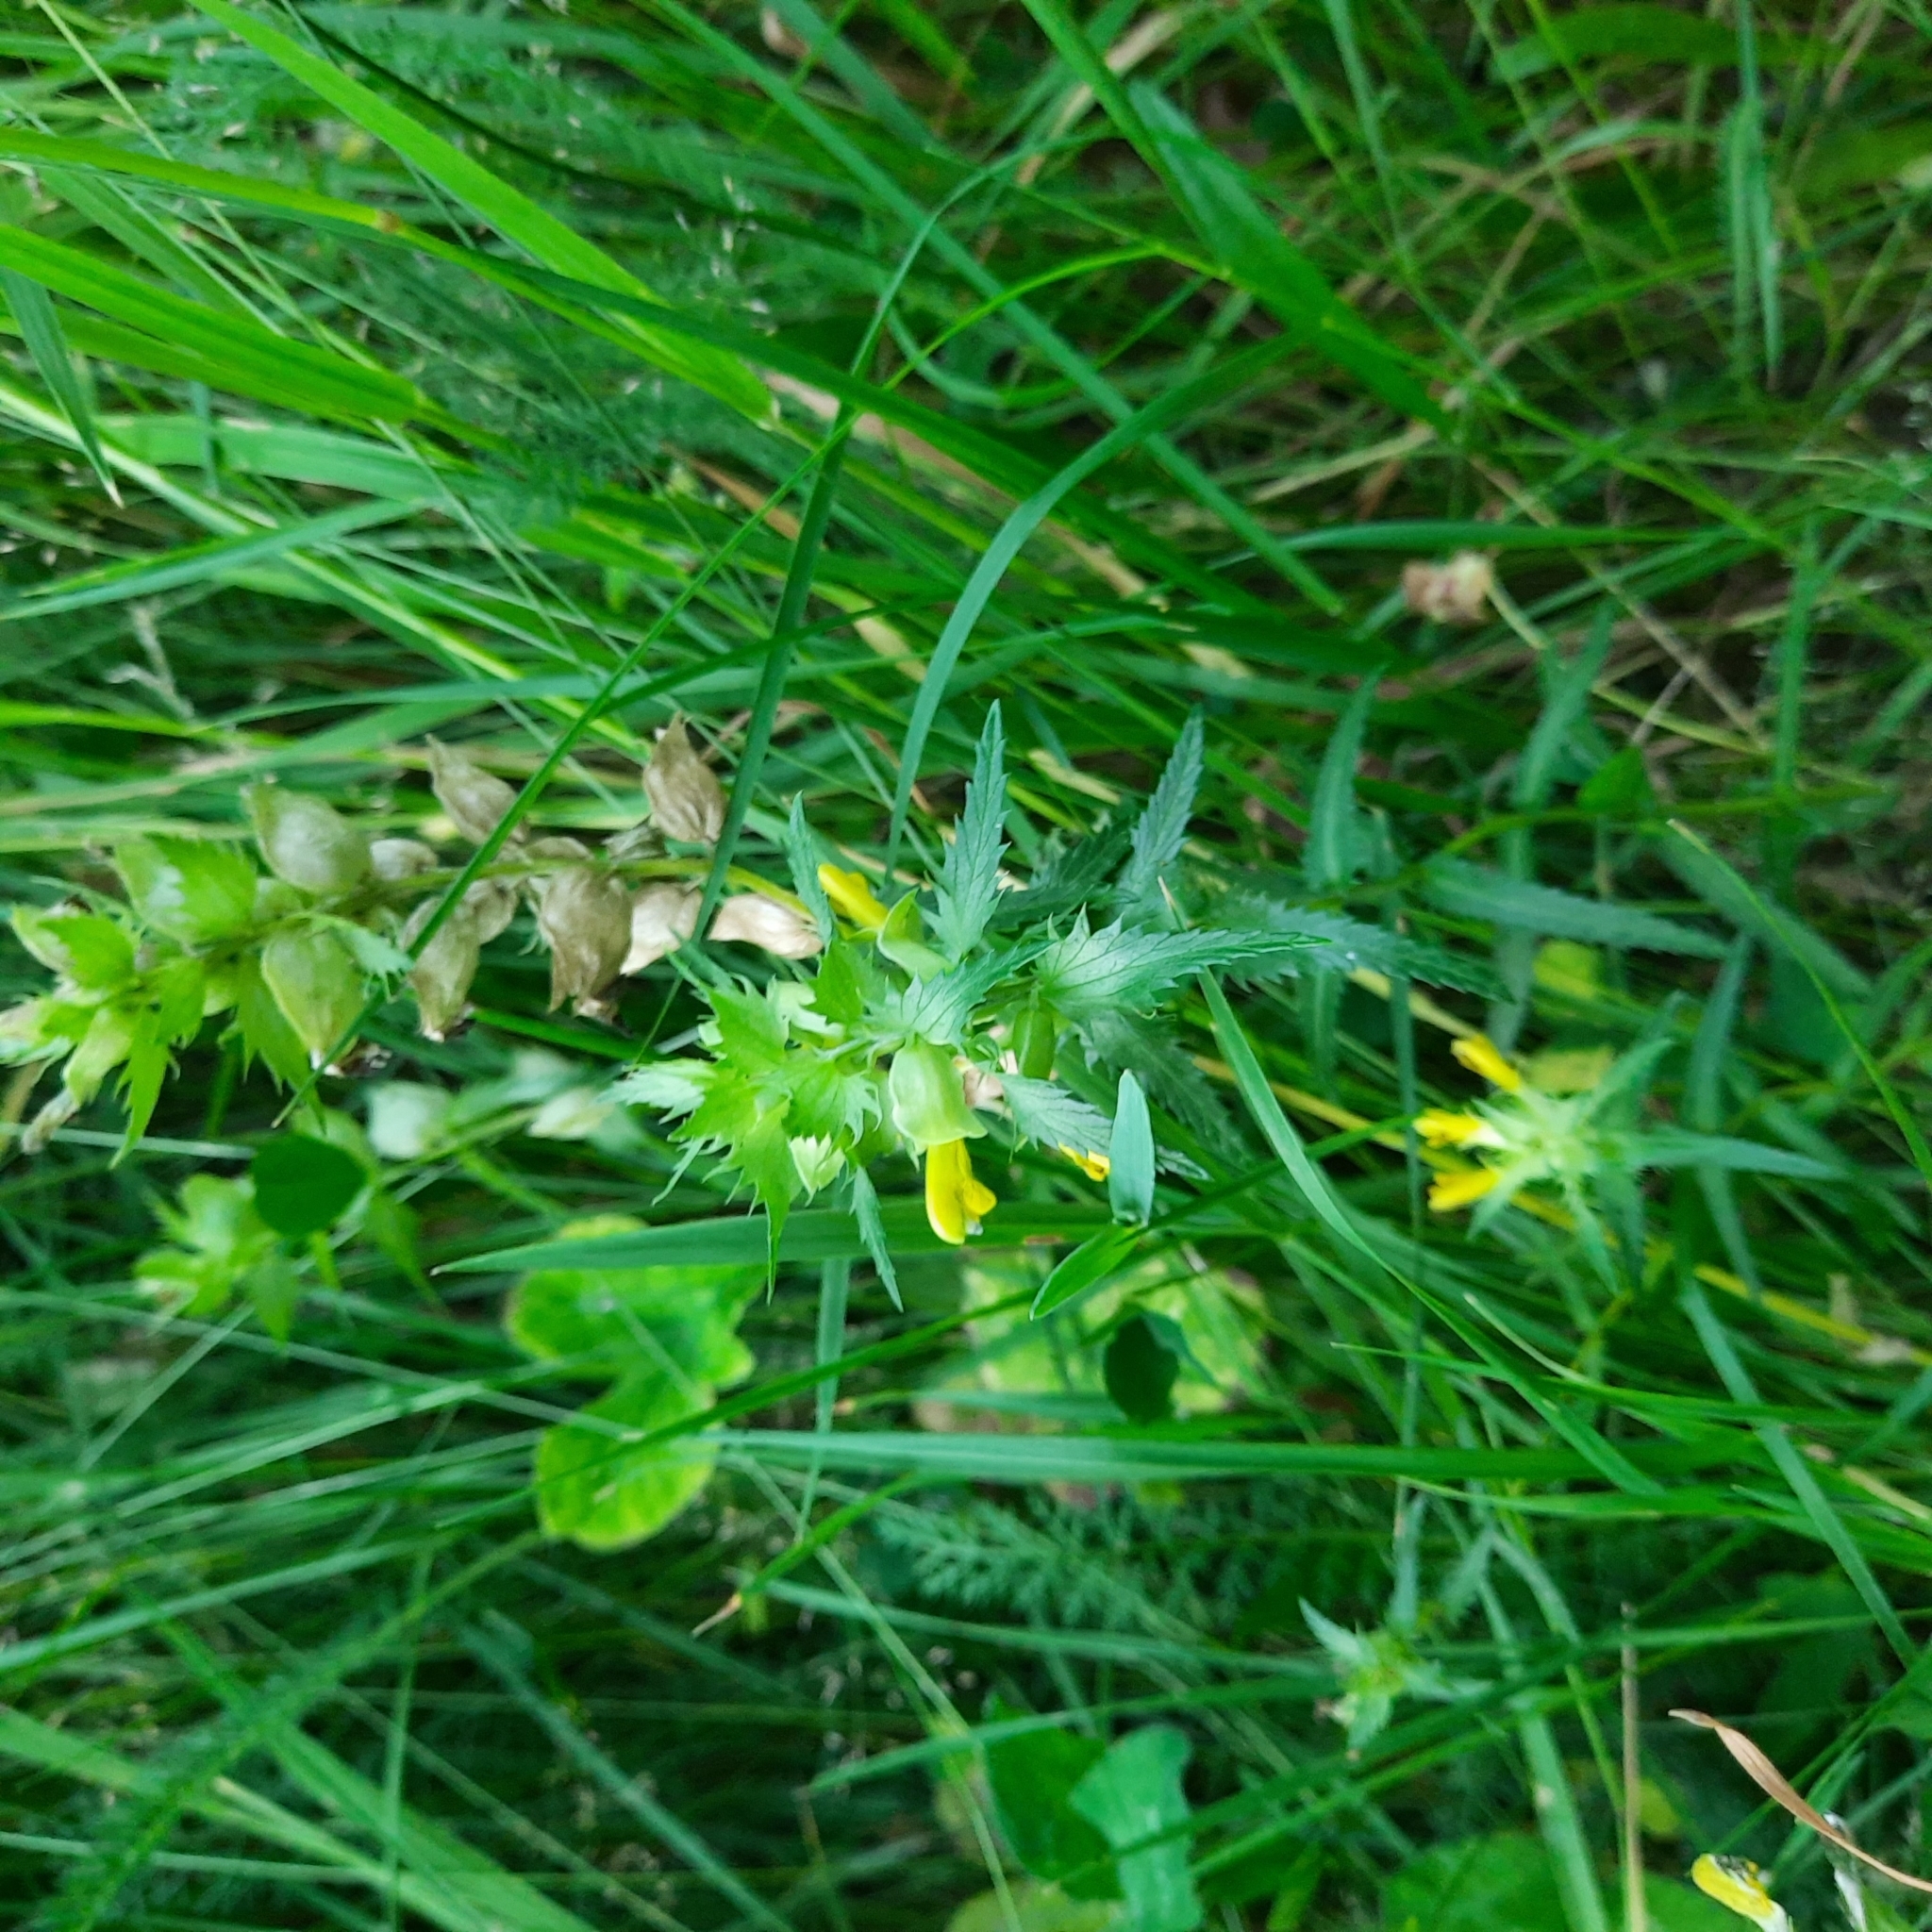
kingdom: Plantae
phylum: Tracheophyta
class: Magnoliopsida
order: Lamiales
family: Orobanchaceae
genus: Rhinanthus
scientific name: Rhinanthus serotinus
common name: Late-flowering yellow rattle
